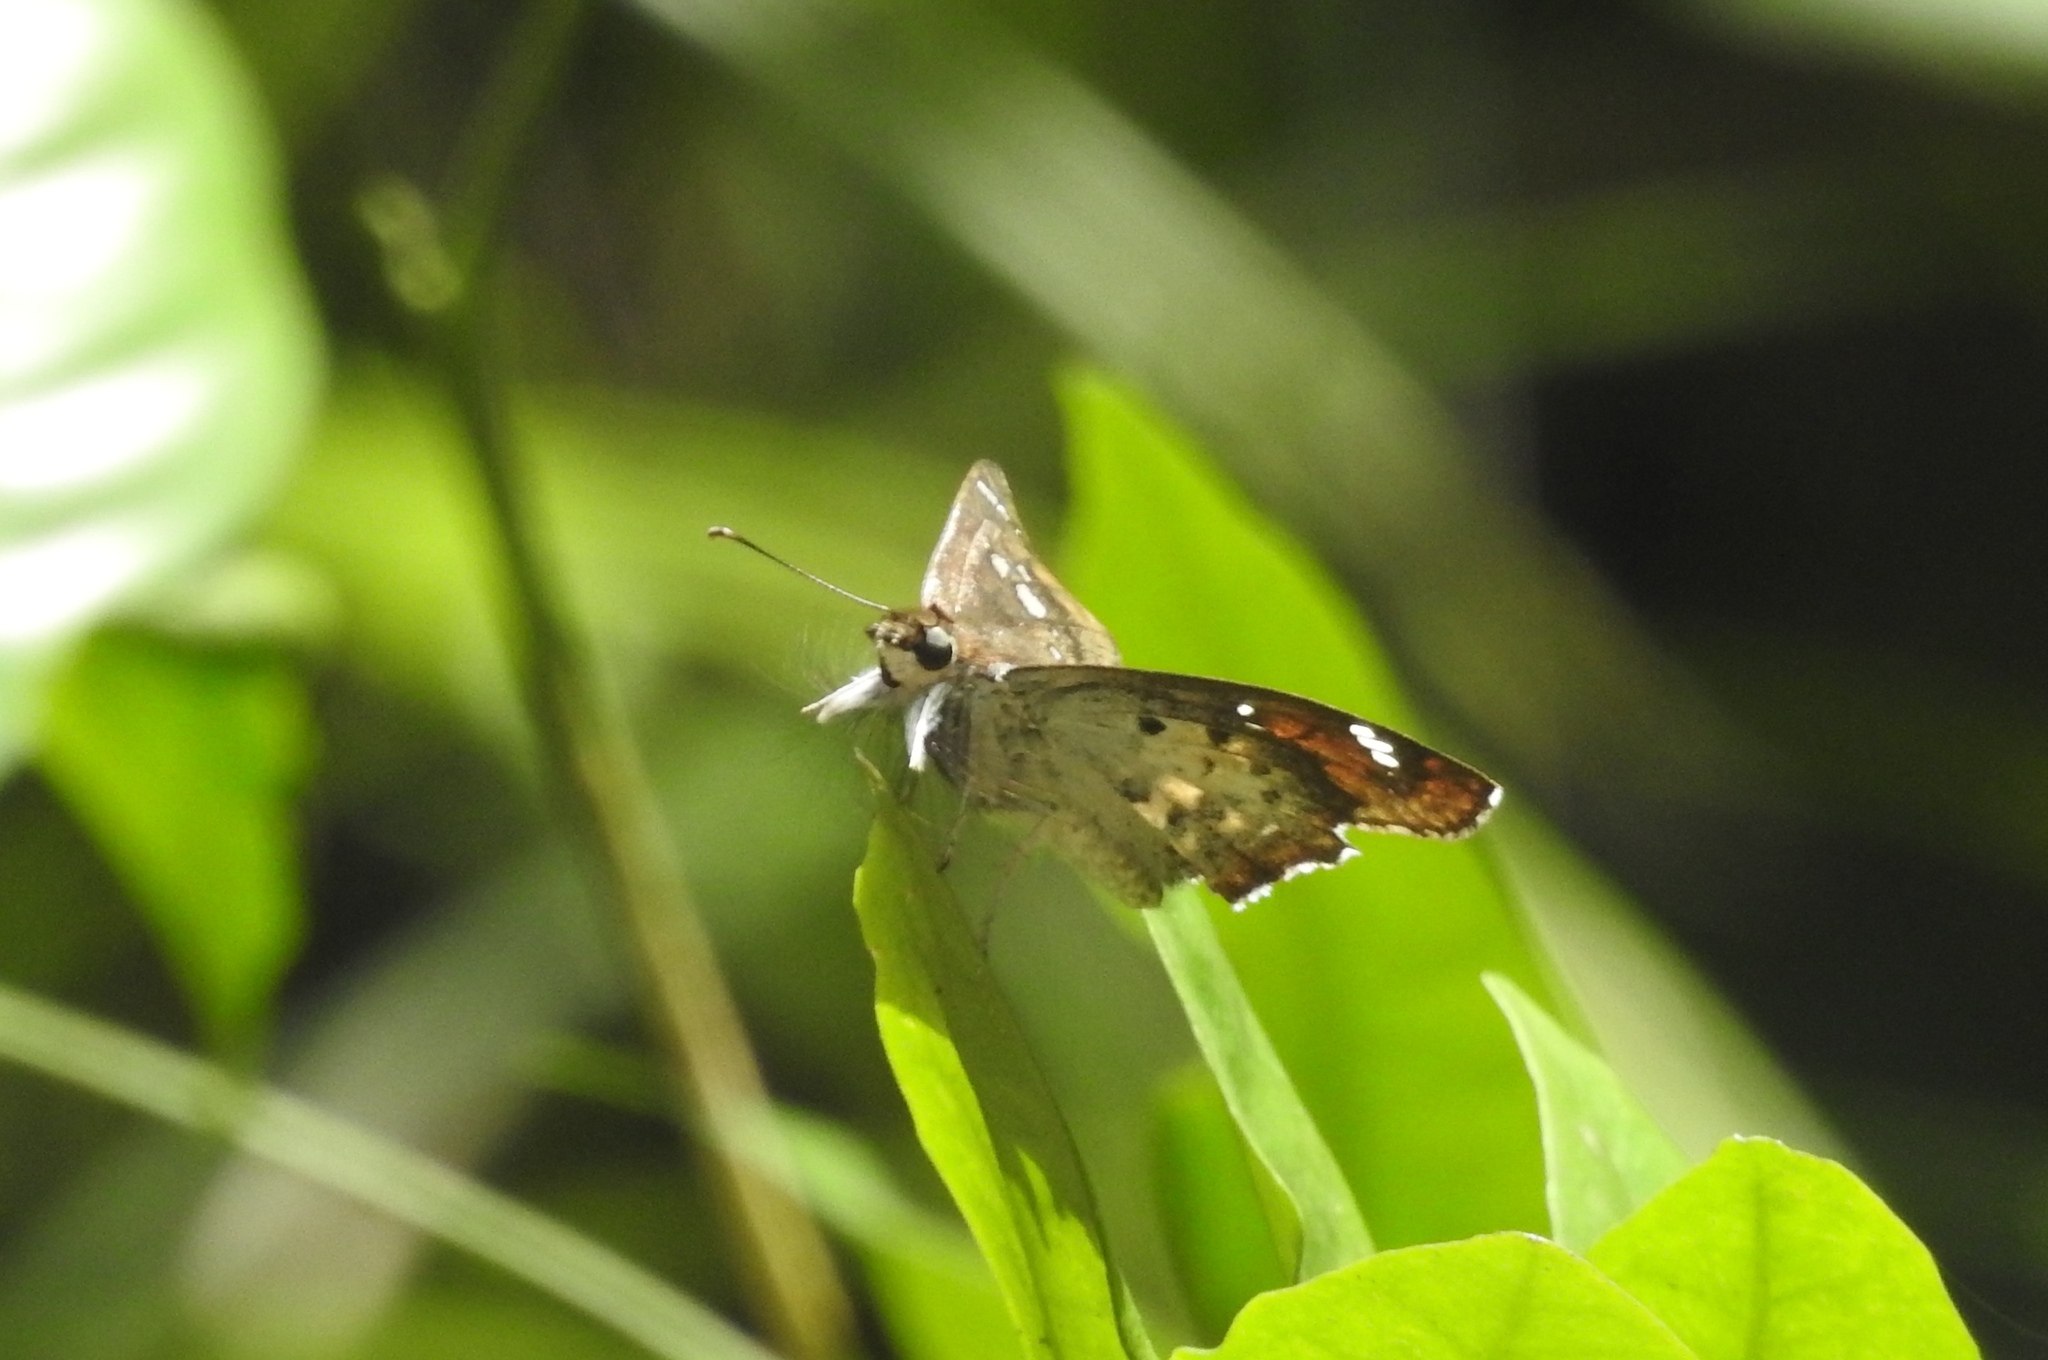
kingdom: Animalia
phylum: Arthropoda
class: Insecta
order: Lepidoptera
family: Hesperiidae
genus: Caprona
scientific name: Caprona ransonnettii
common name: Golden angle
